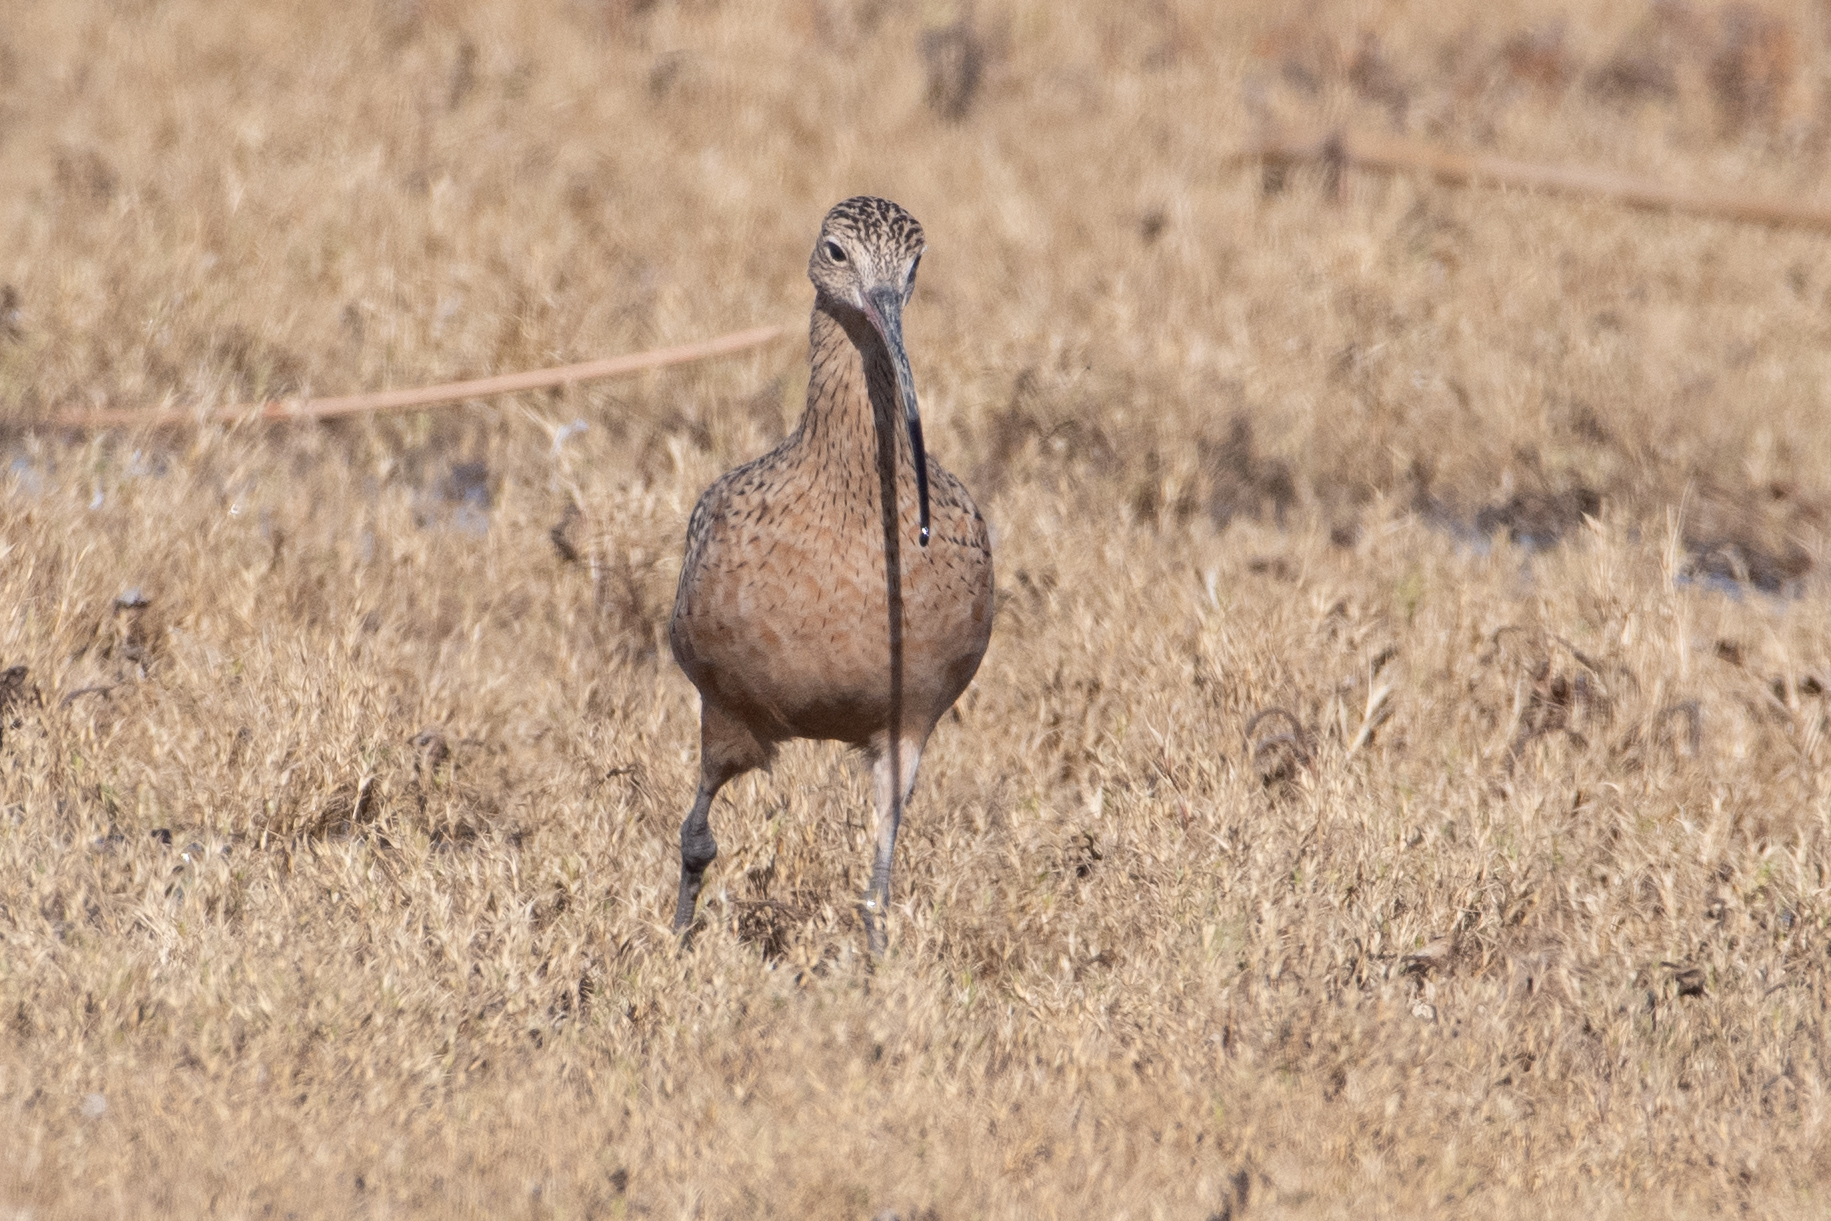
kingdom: Animalia
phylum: Chordata
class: Aves
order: Charadriiformes
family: Scolopacidae
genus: Numenius
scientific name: Numenius americanus
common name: Long-billed curlew
